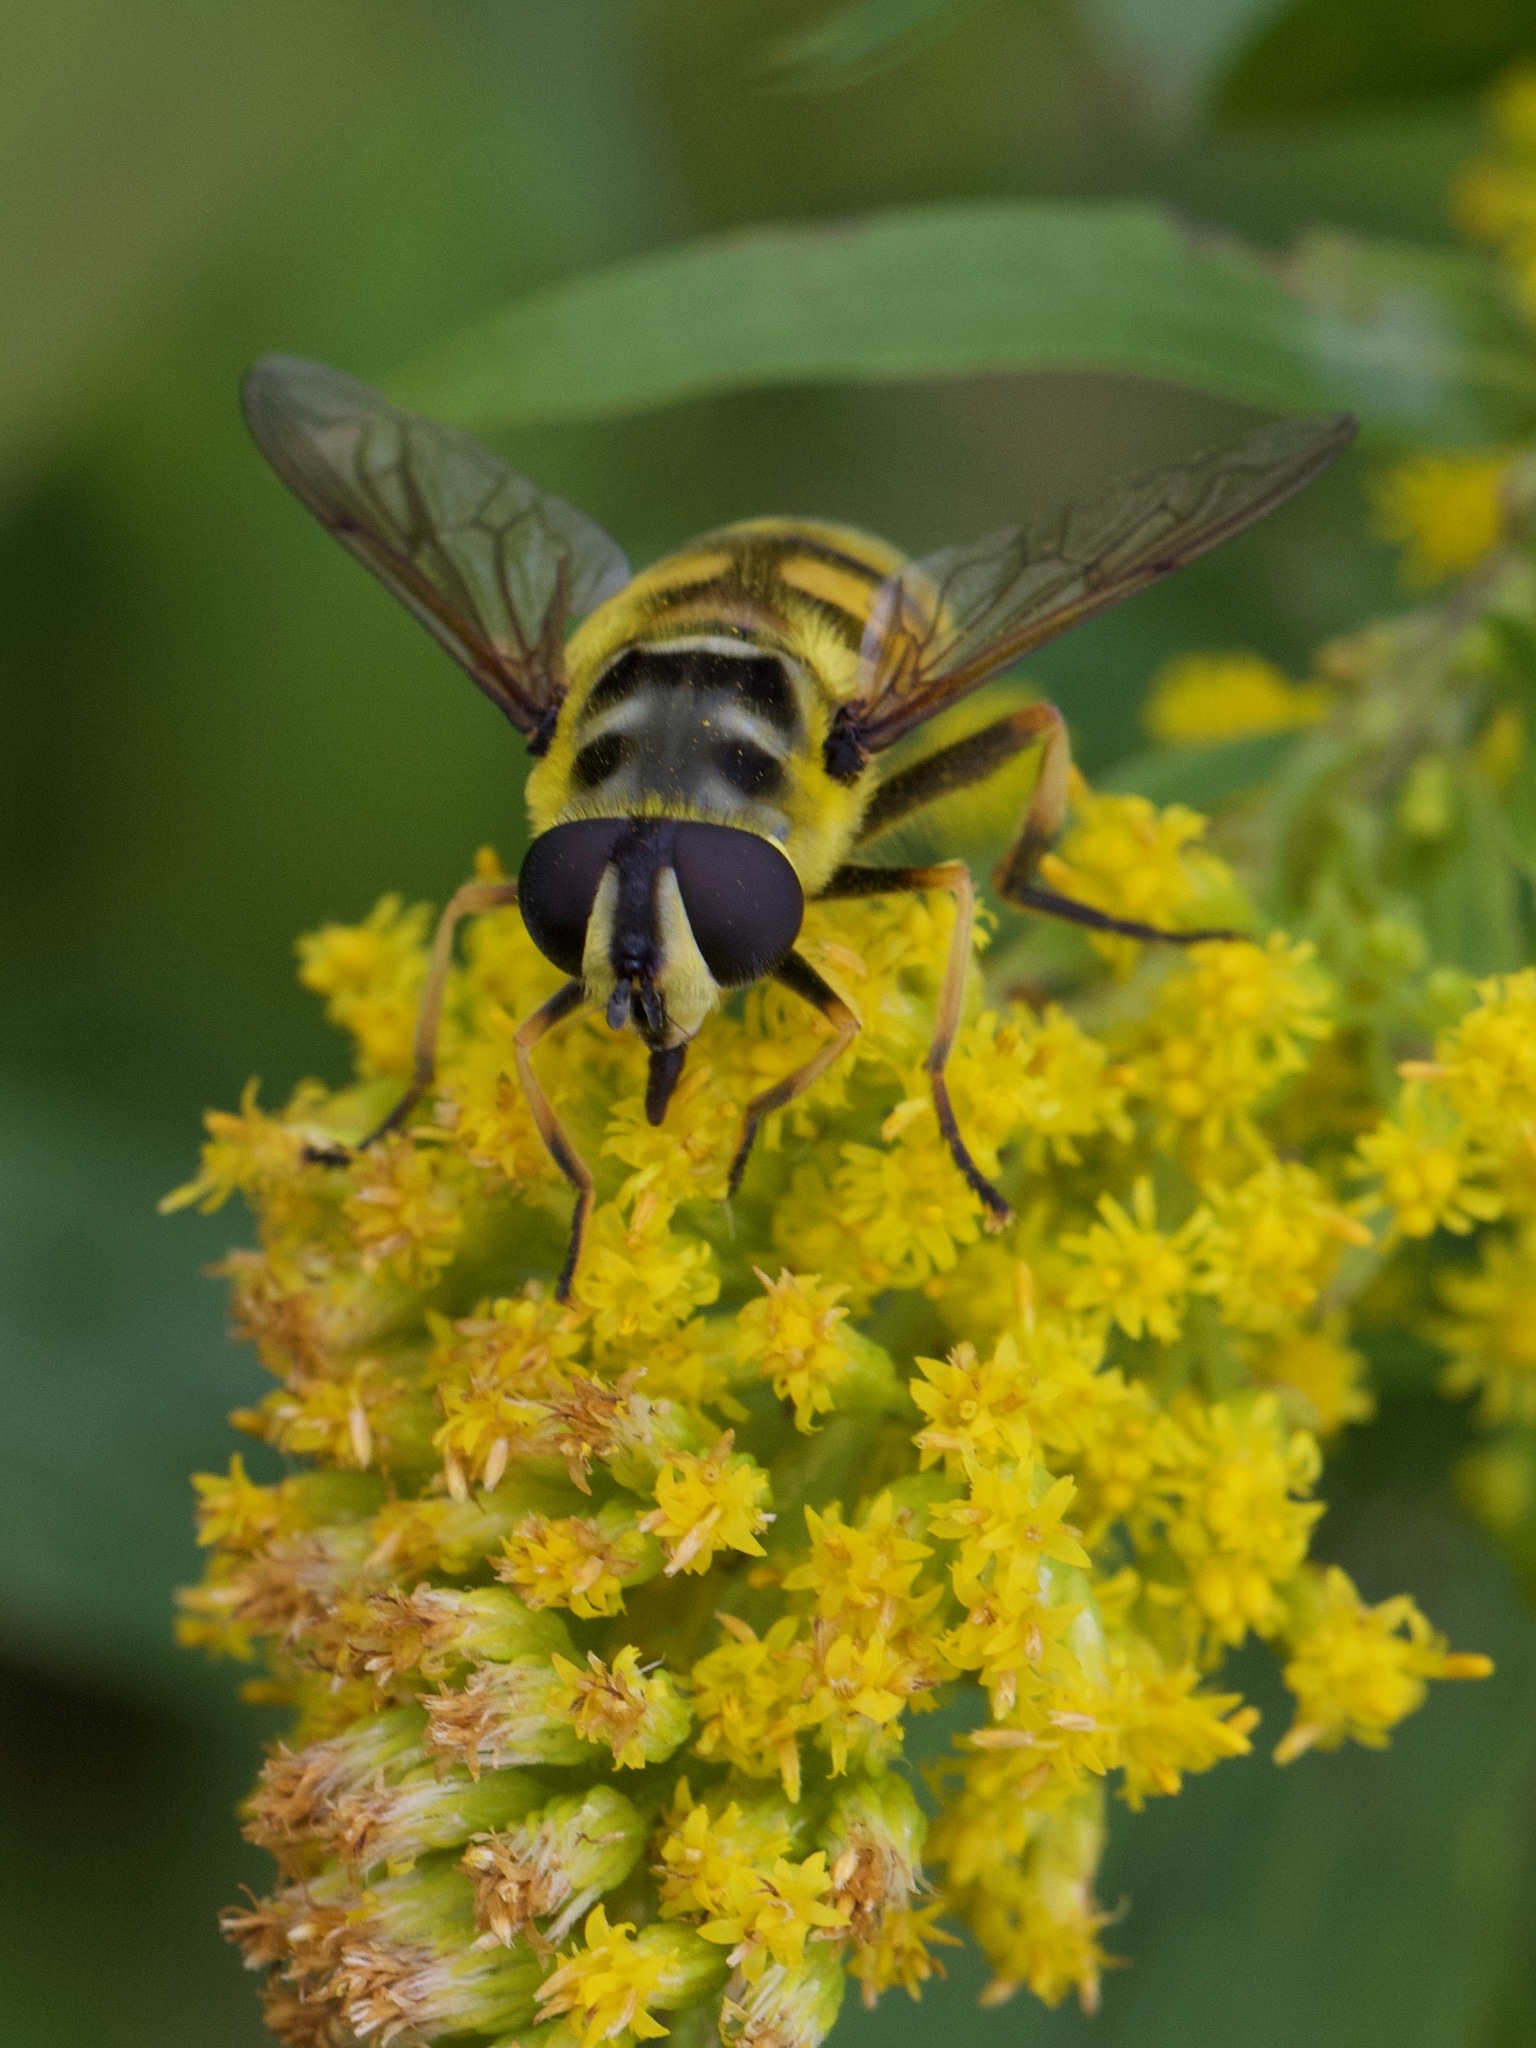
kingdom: Animalia
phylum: Arthropoda
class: Insecta
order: Diptera
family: Syrphidae
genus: Myathropa
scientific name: Myathropa florea
